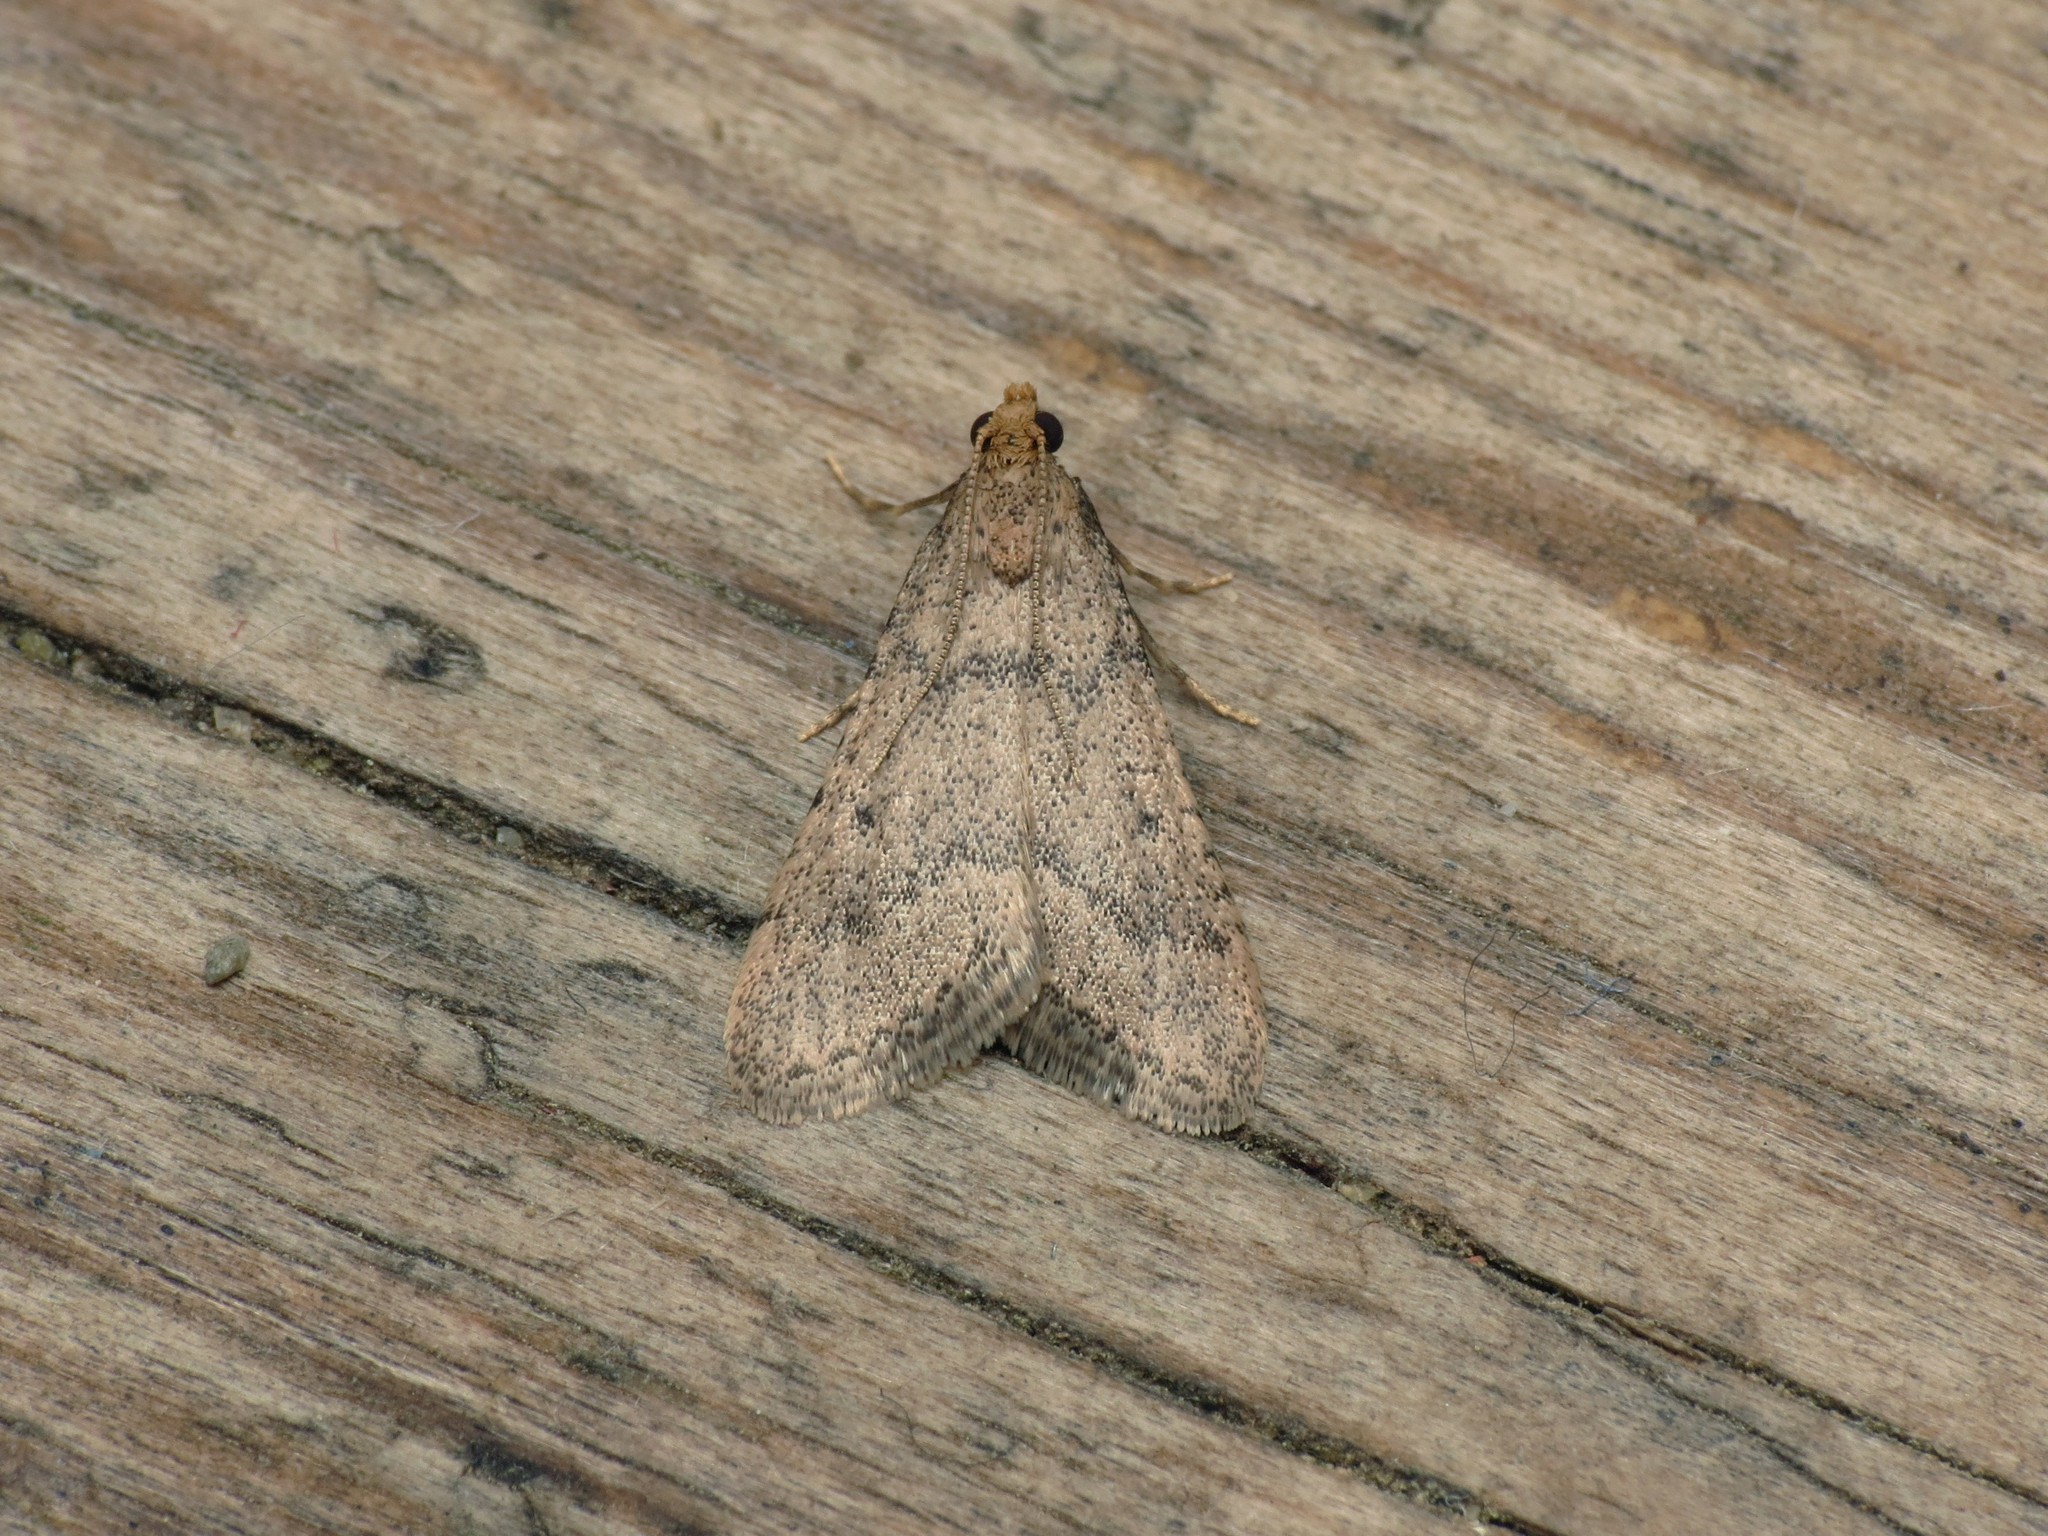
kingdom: Animalia
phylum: Arthropoda
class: Insecta
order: Lepidoptera
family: Pyralidae
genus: Bostra
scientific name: Bostra obsoletalis
